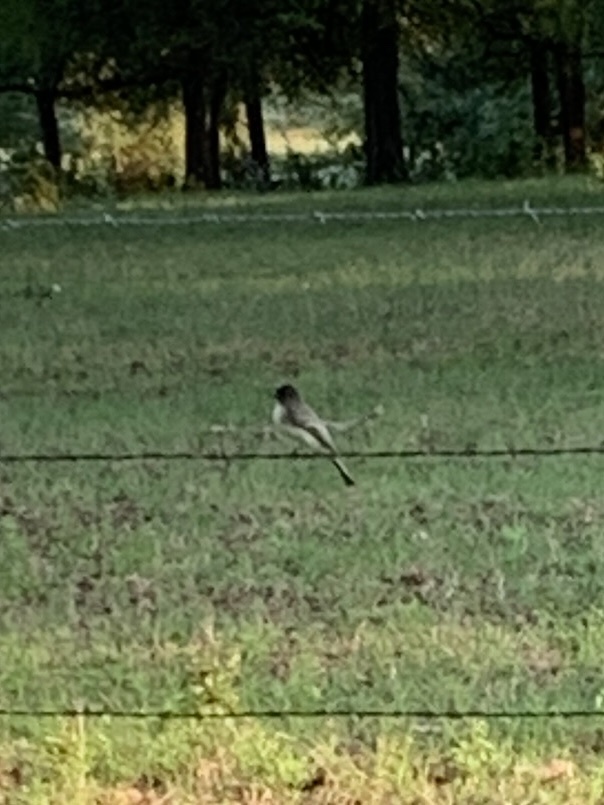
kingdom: Animalia
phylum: Chordata
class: Aves
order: Passeriformes
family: Tyrannidae
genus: Sayornis
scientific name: Sayornis phoebe
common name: Eastern phoebe
